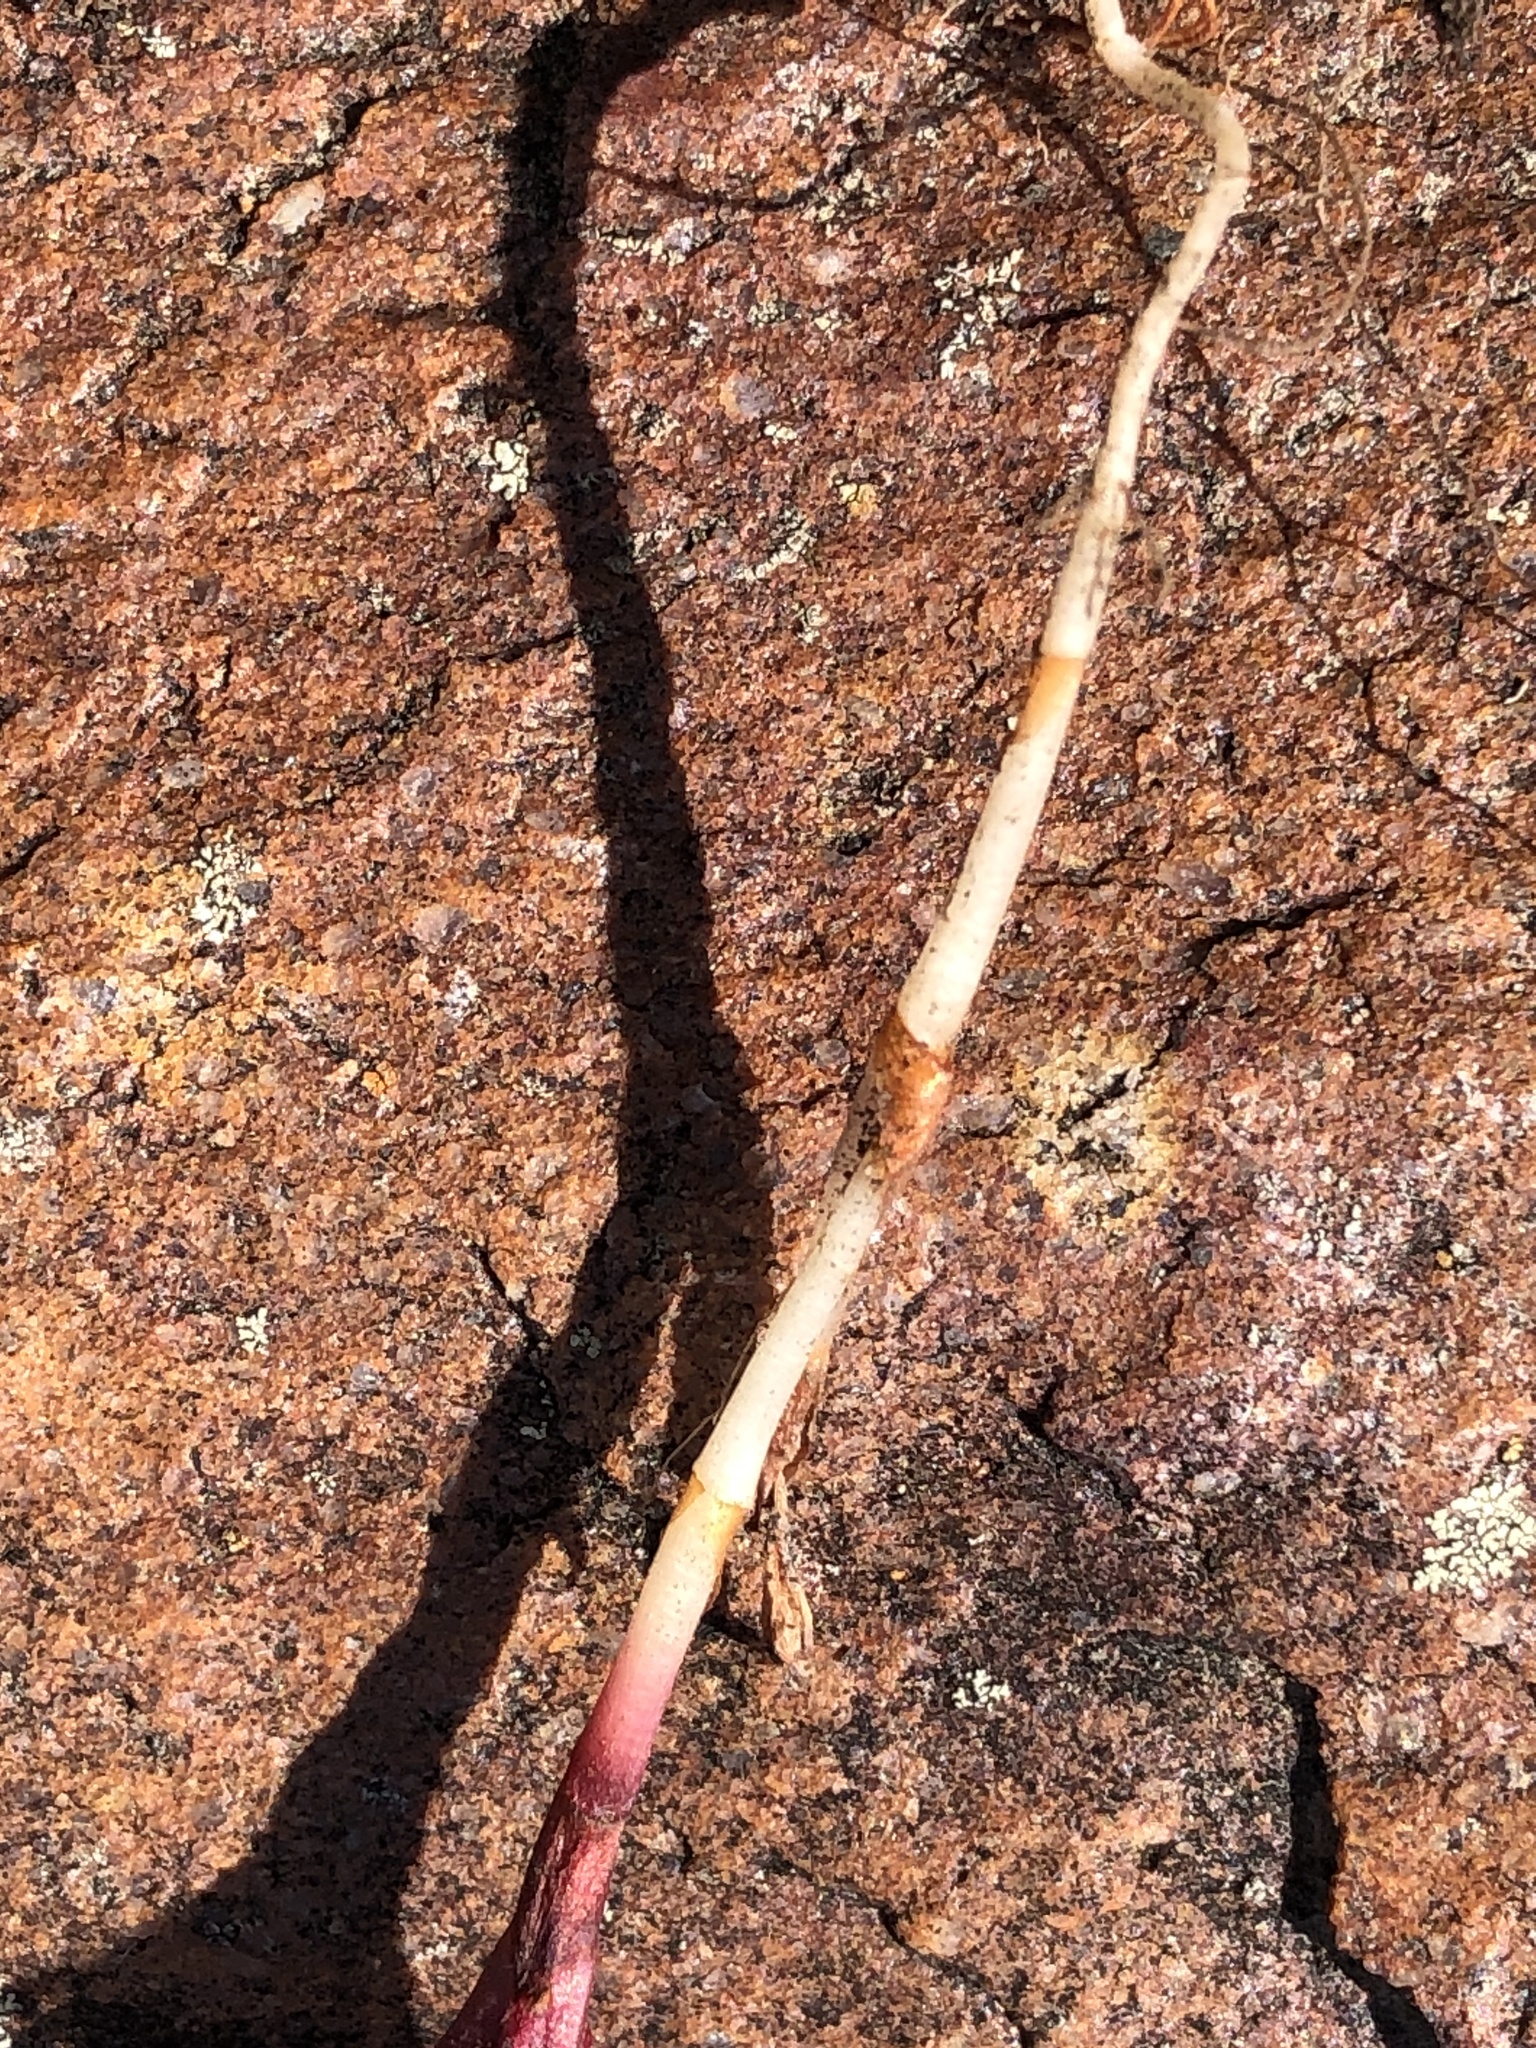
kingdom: Plantae
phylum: Tracheophyta
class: Magnoliopsida
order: Oxalidales
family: Oxalidaceae
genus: Oxalis
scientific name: Oxalis attaquana
